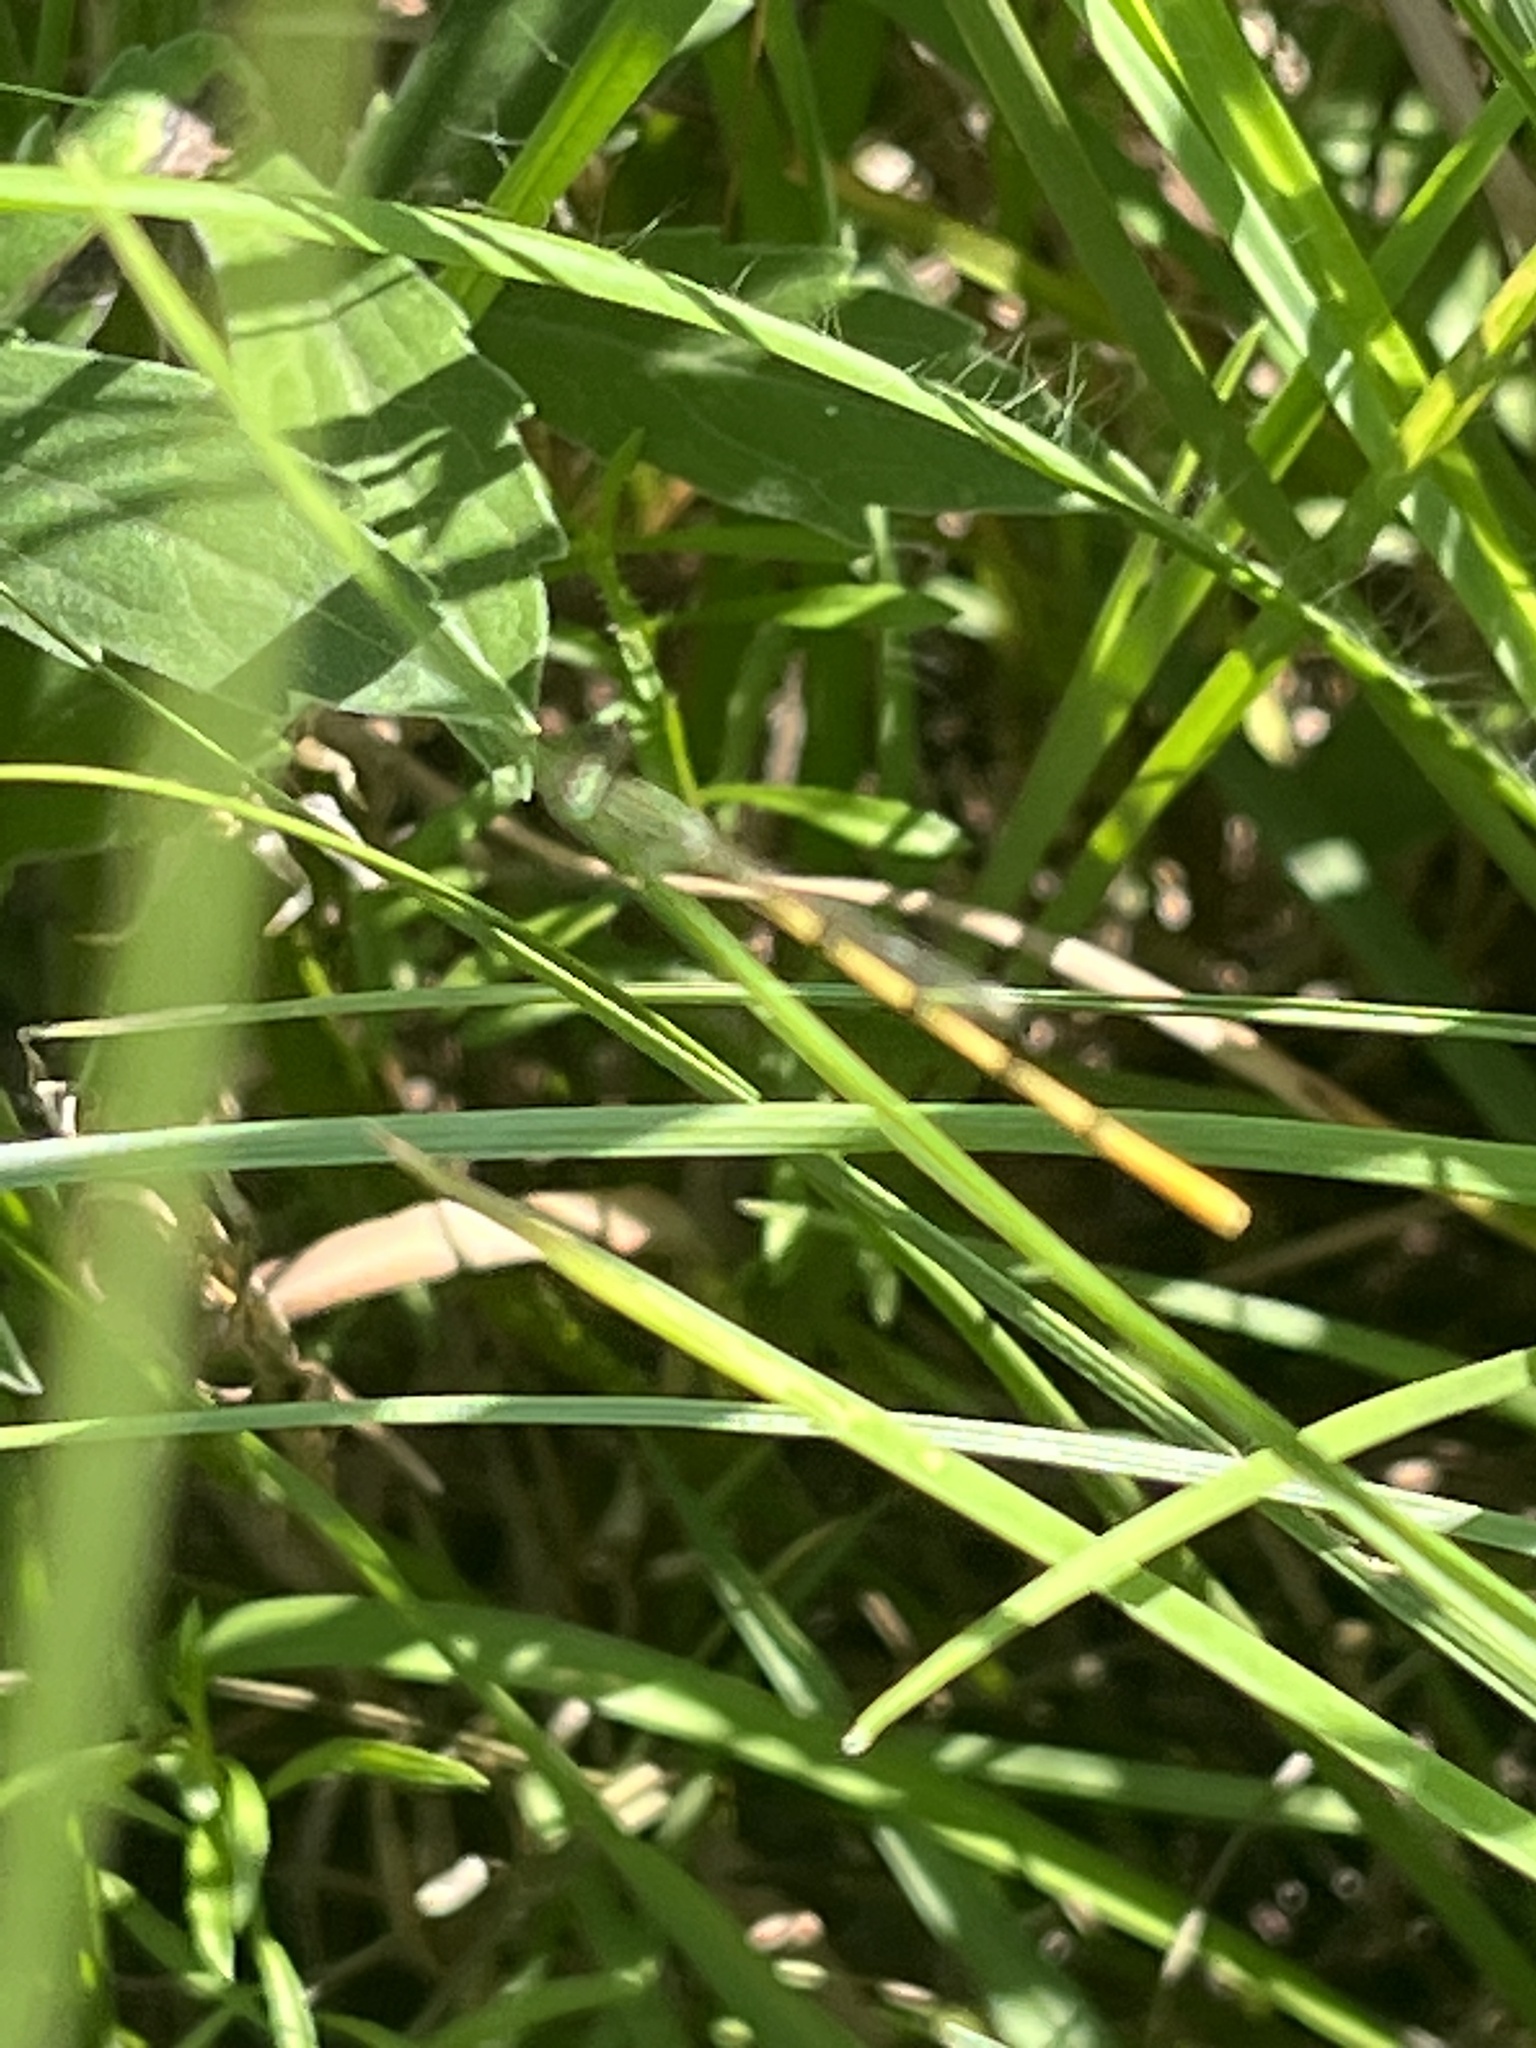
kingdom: Animalia
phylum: Arthropoda
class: Insecta
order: Odonata
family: Coenagrionidae
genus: Ischnura
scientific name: Ischnura hastata
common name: Citrine forktail
